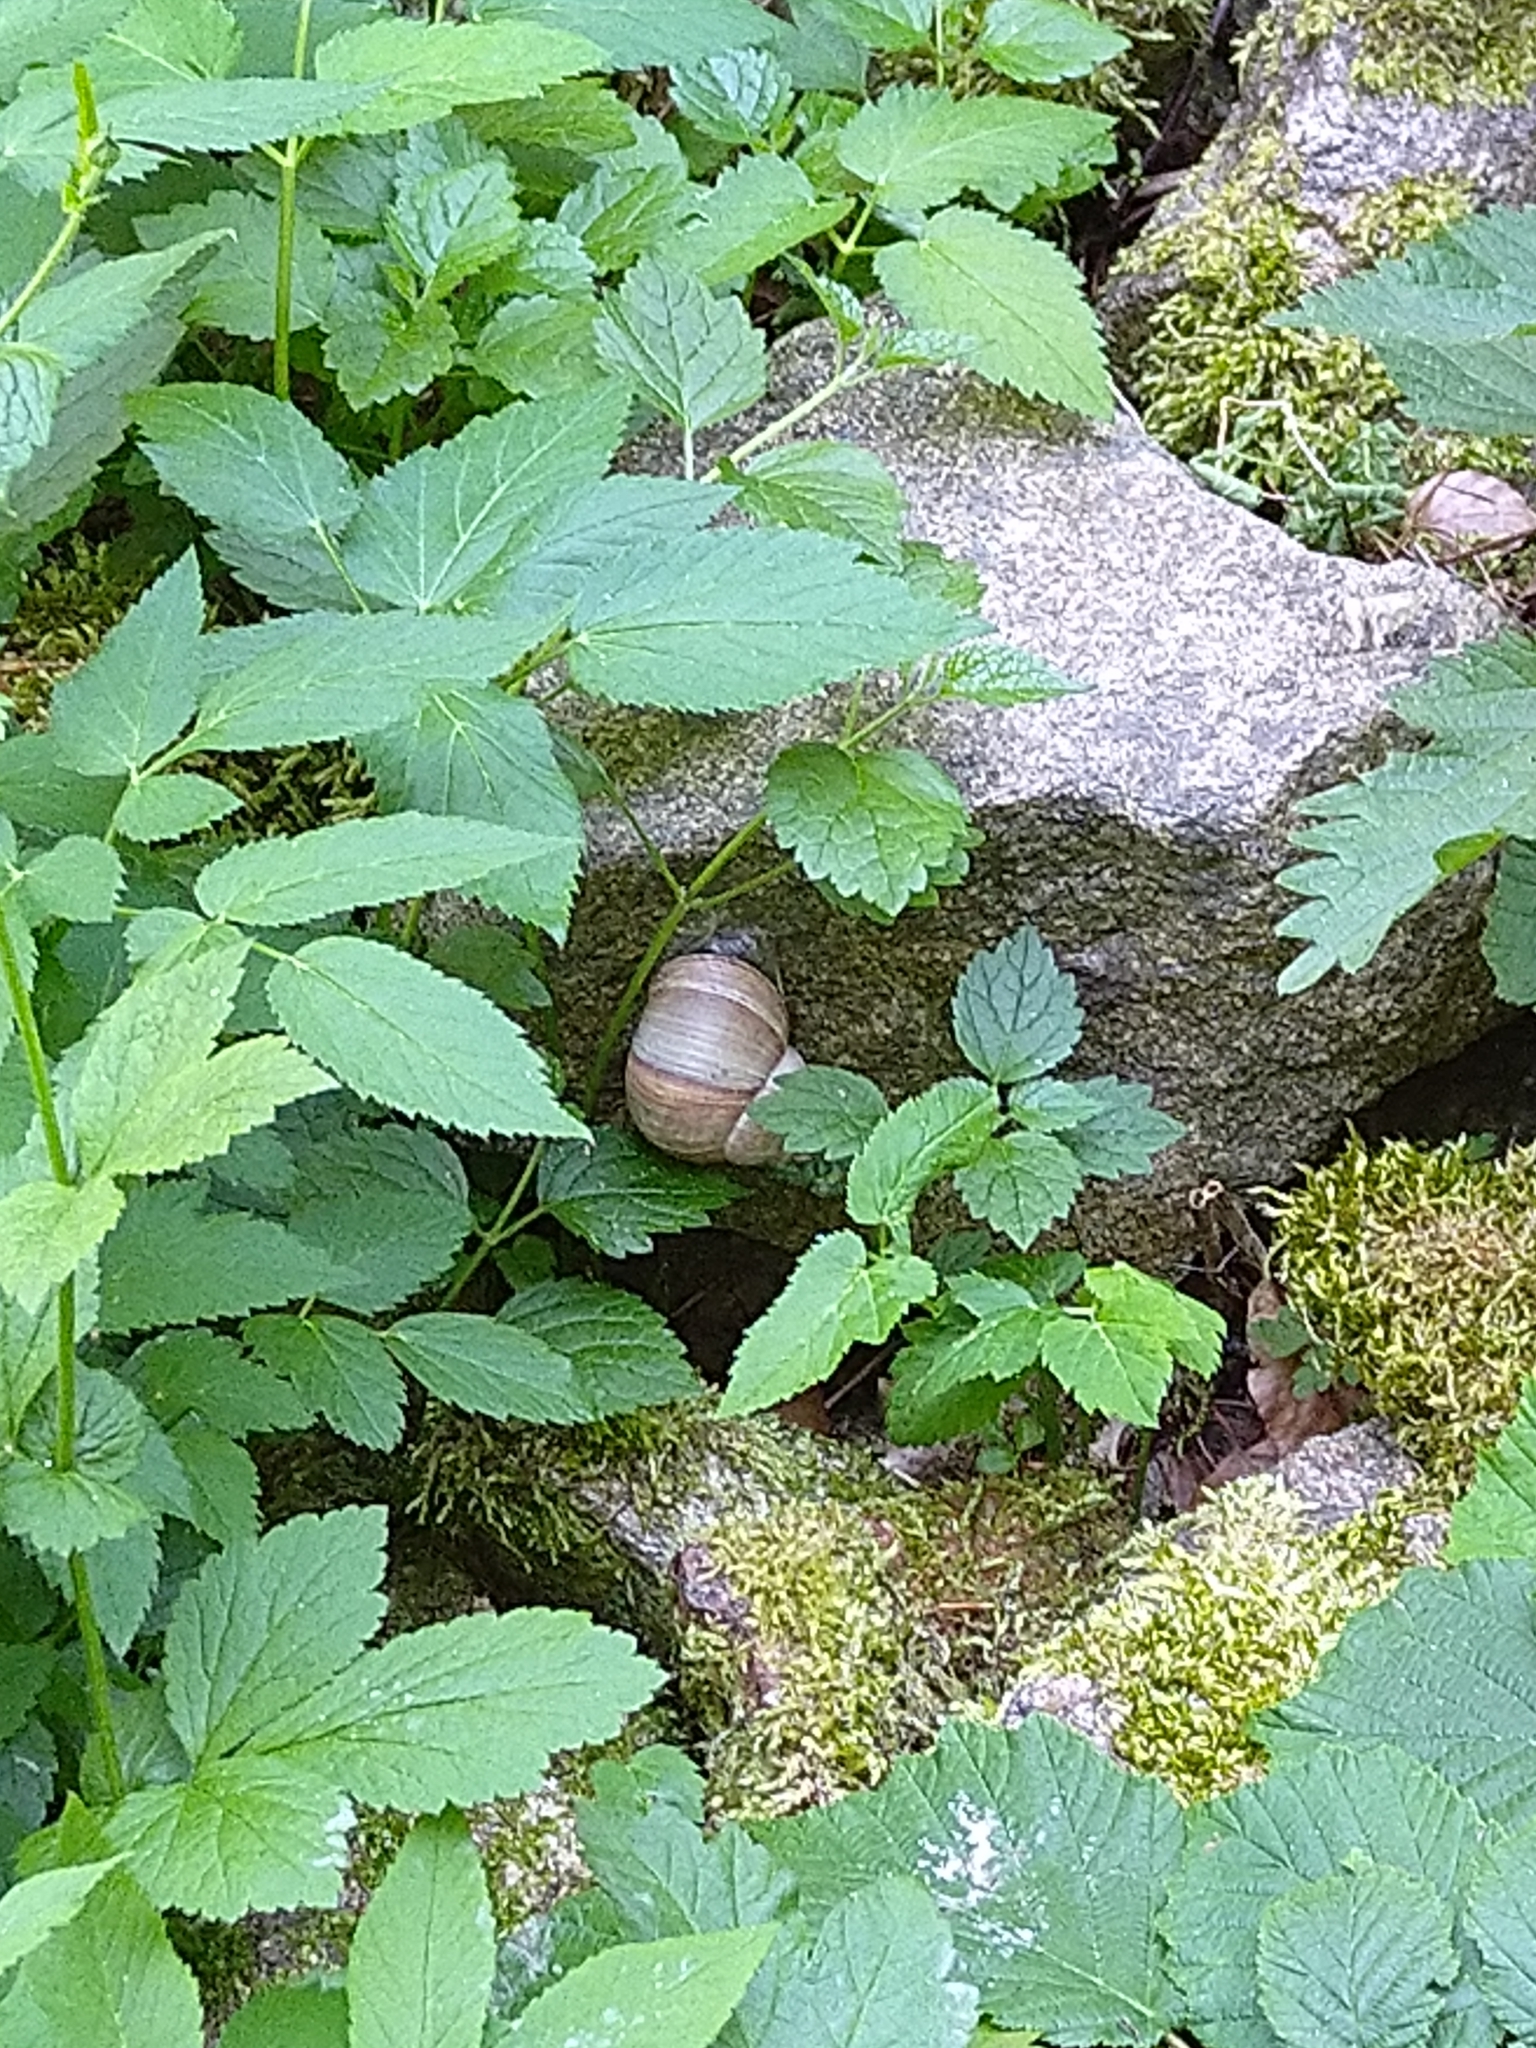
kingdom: Animalia
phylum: Mollusca
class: Gastropoda
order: Stylommatophora
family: Helicidae
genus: Helix
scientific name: Helix pomatia
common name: Roman snail
